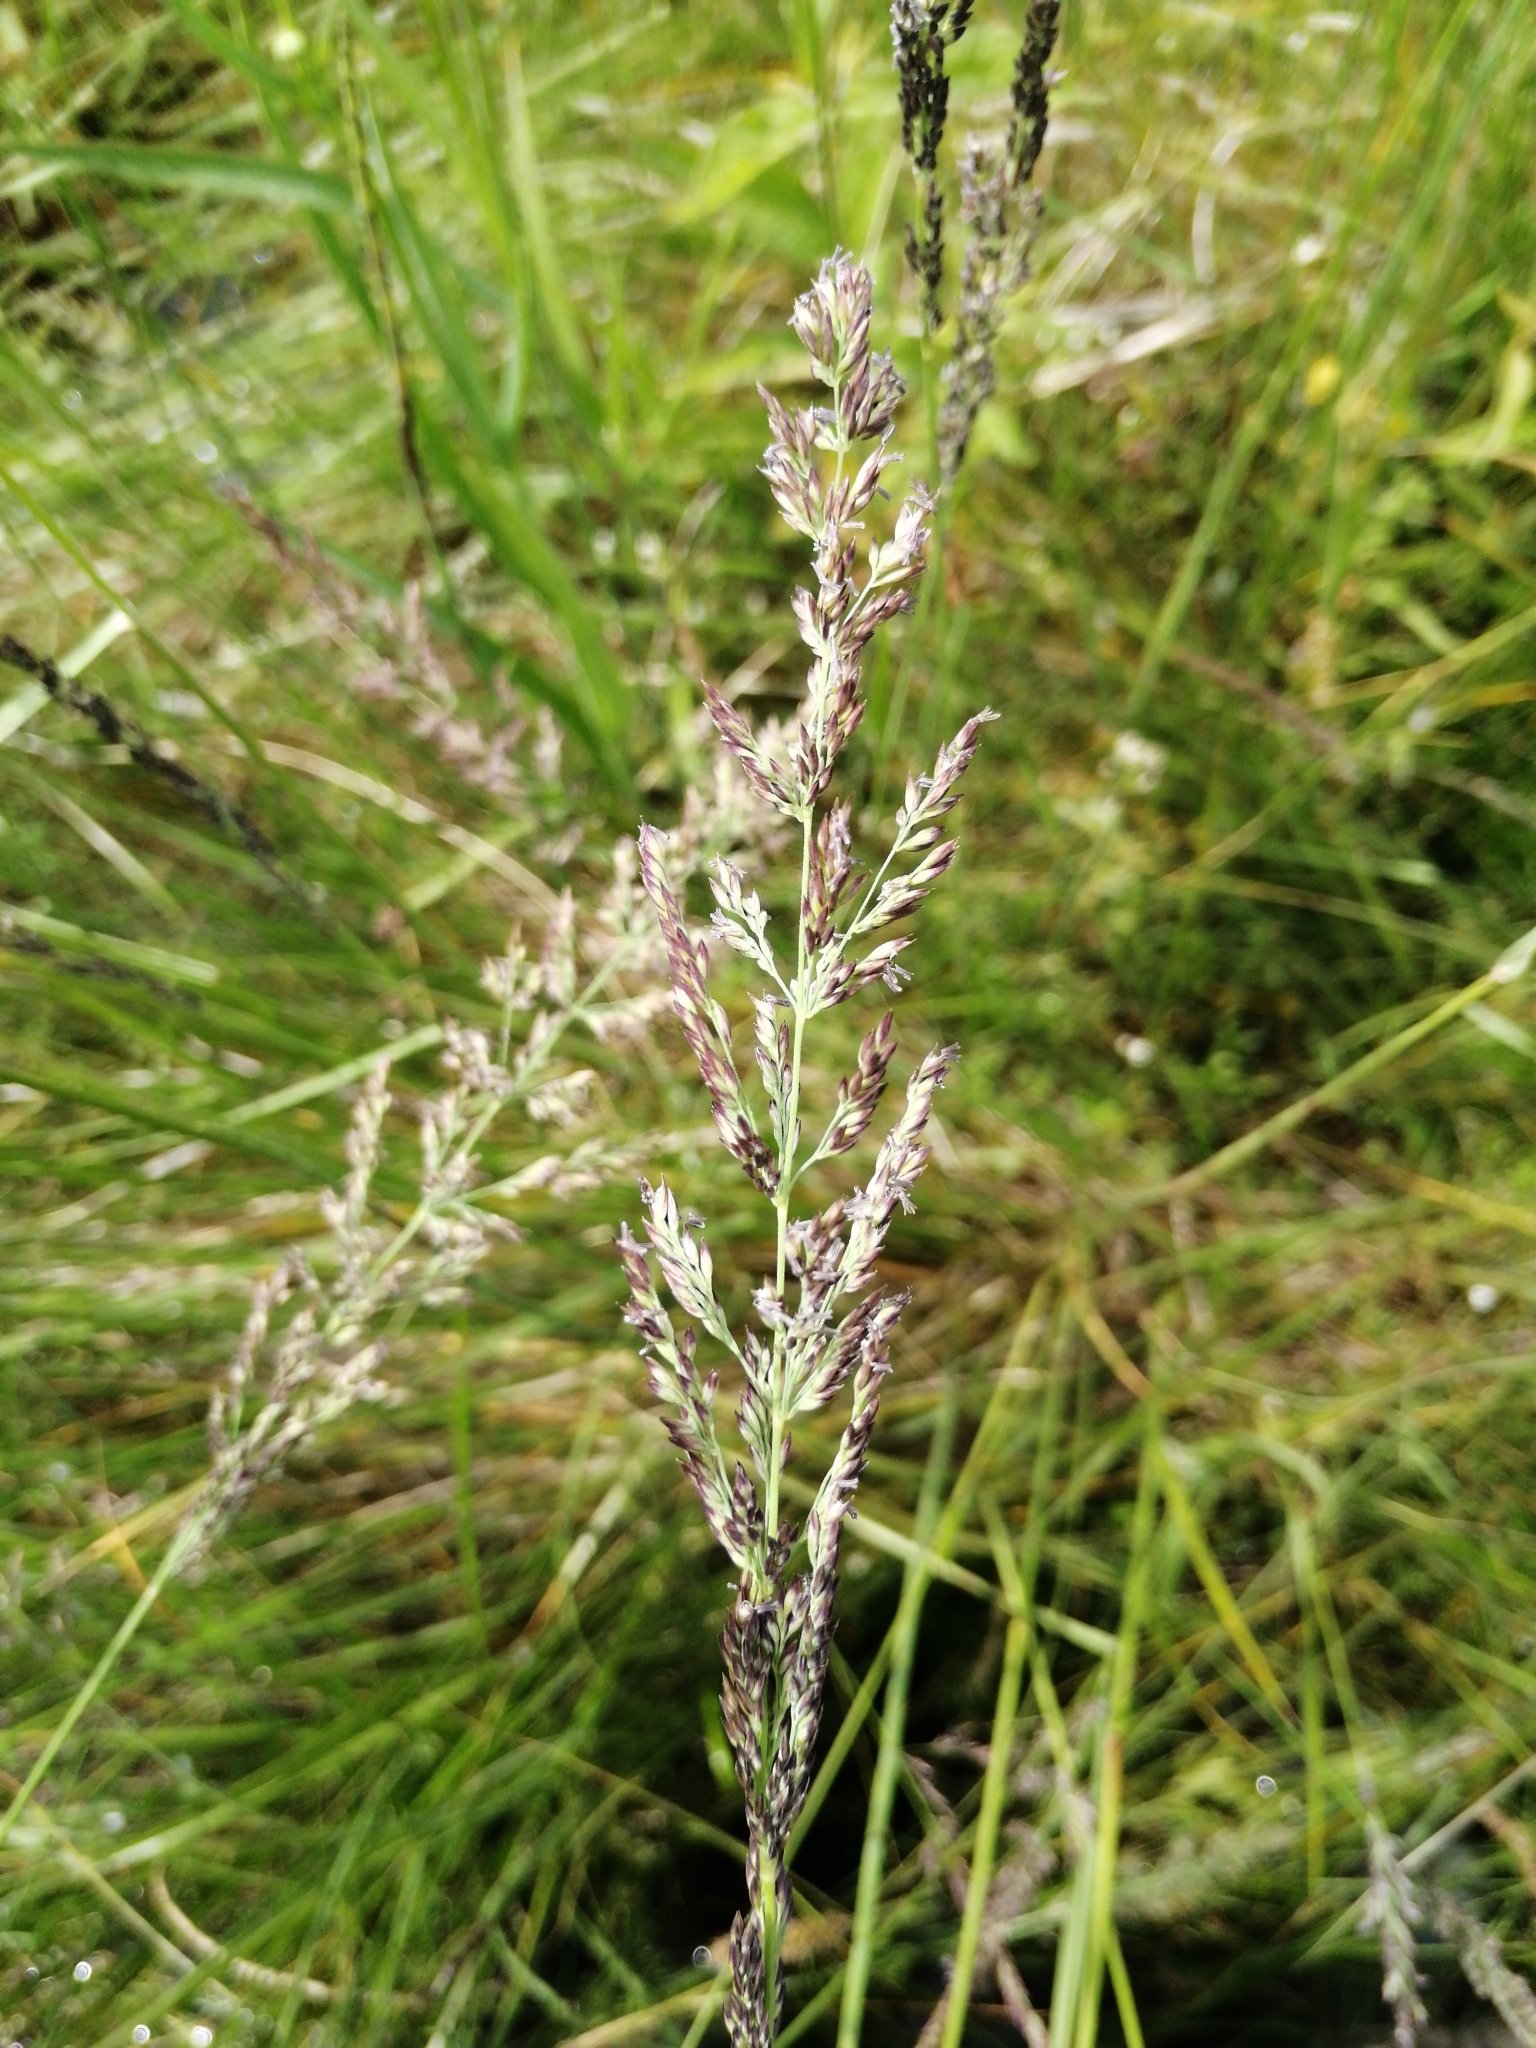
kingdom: Plantae
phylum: Tracheophyta
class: Liliopsida
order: Poales
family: Poaceae
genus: Molinia
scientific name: Molinia caerulea
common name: Purple moor-grass
